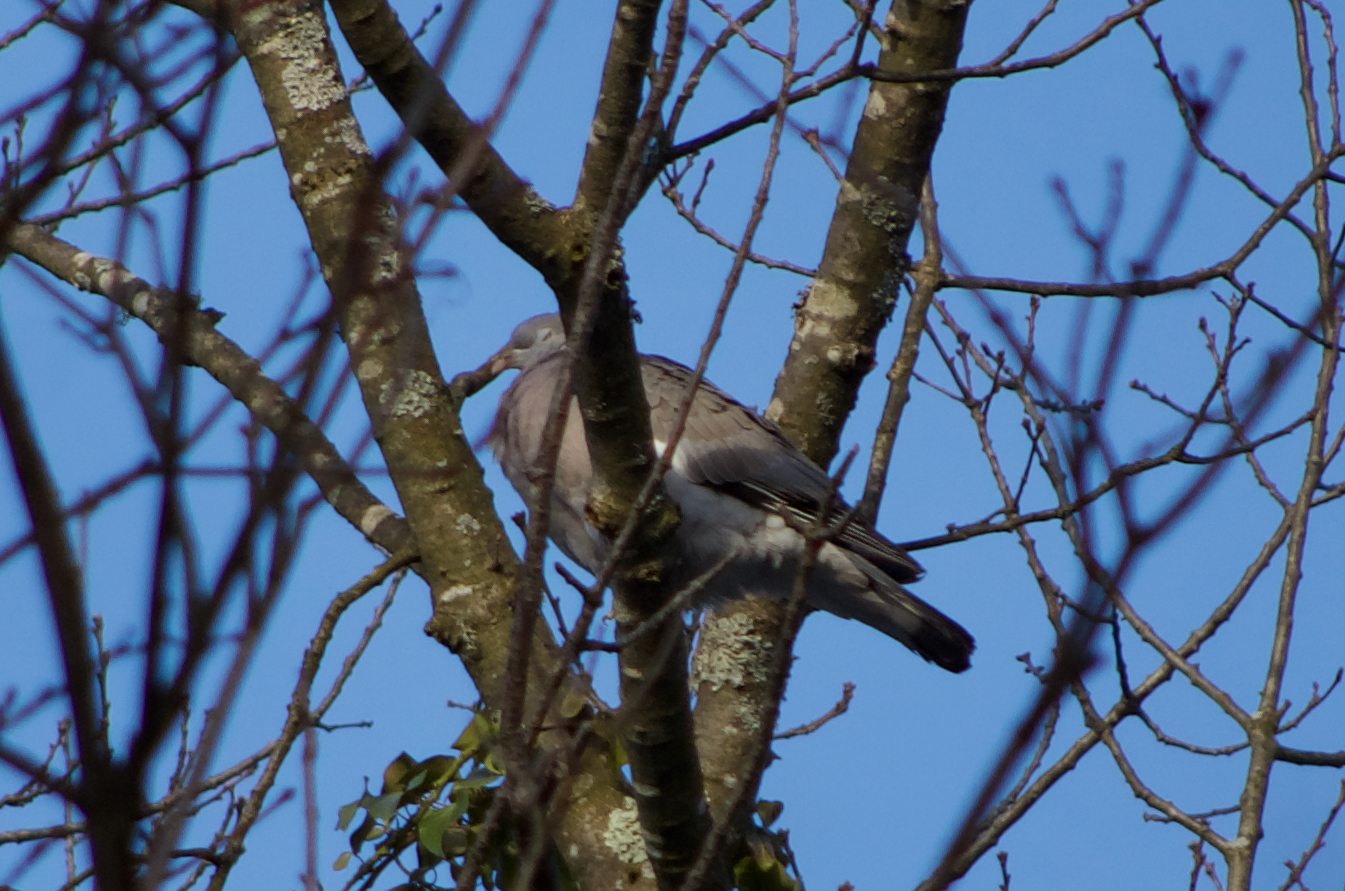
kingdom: Animalia
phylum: Chordata
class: Aves
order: Columbiformes
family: Columbidae
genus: Columba
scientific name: Columba palumbus
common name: Common wood pigeon
